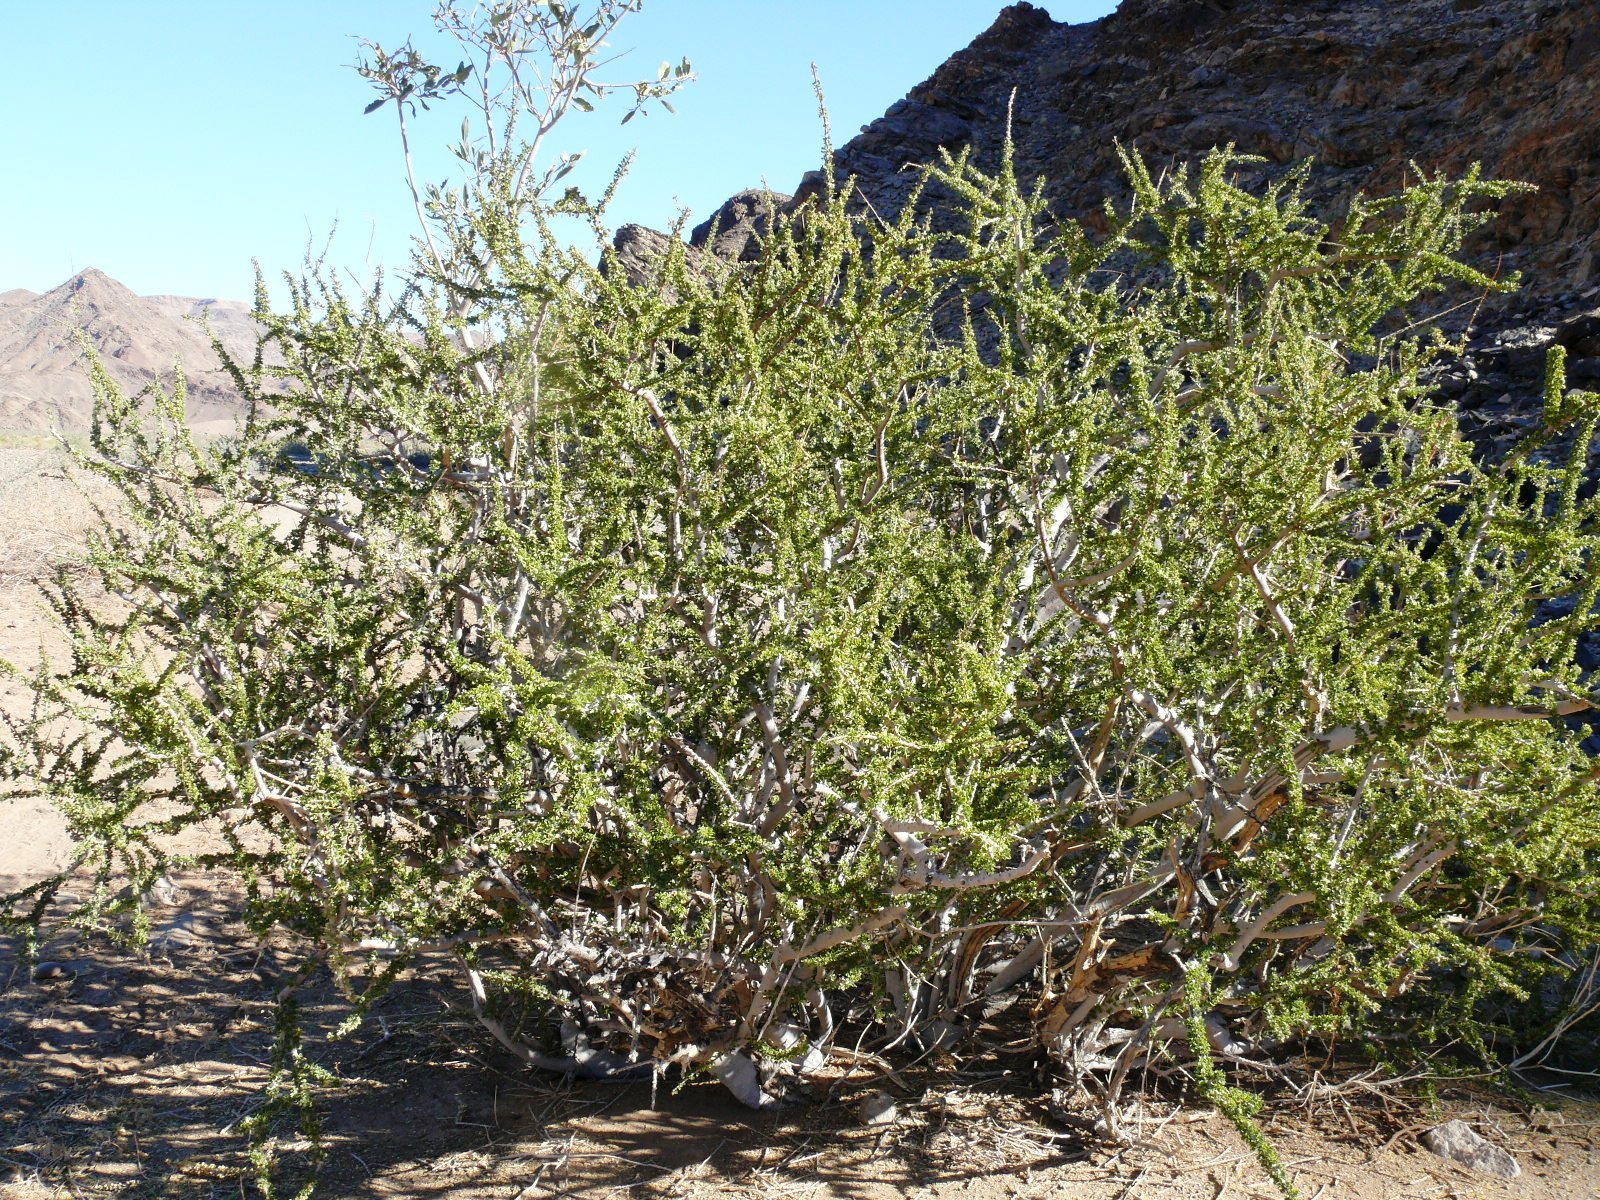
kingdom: Plantae
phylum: Tracheophyta
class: Magnoliopsida
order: Brassicales
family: Capparaceae
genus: Boscia
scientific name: Boscia foetida
